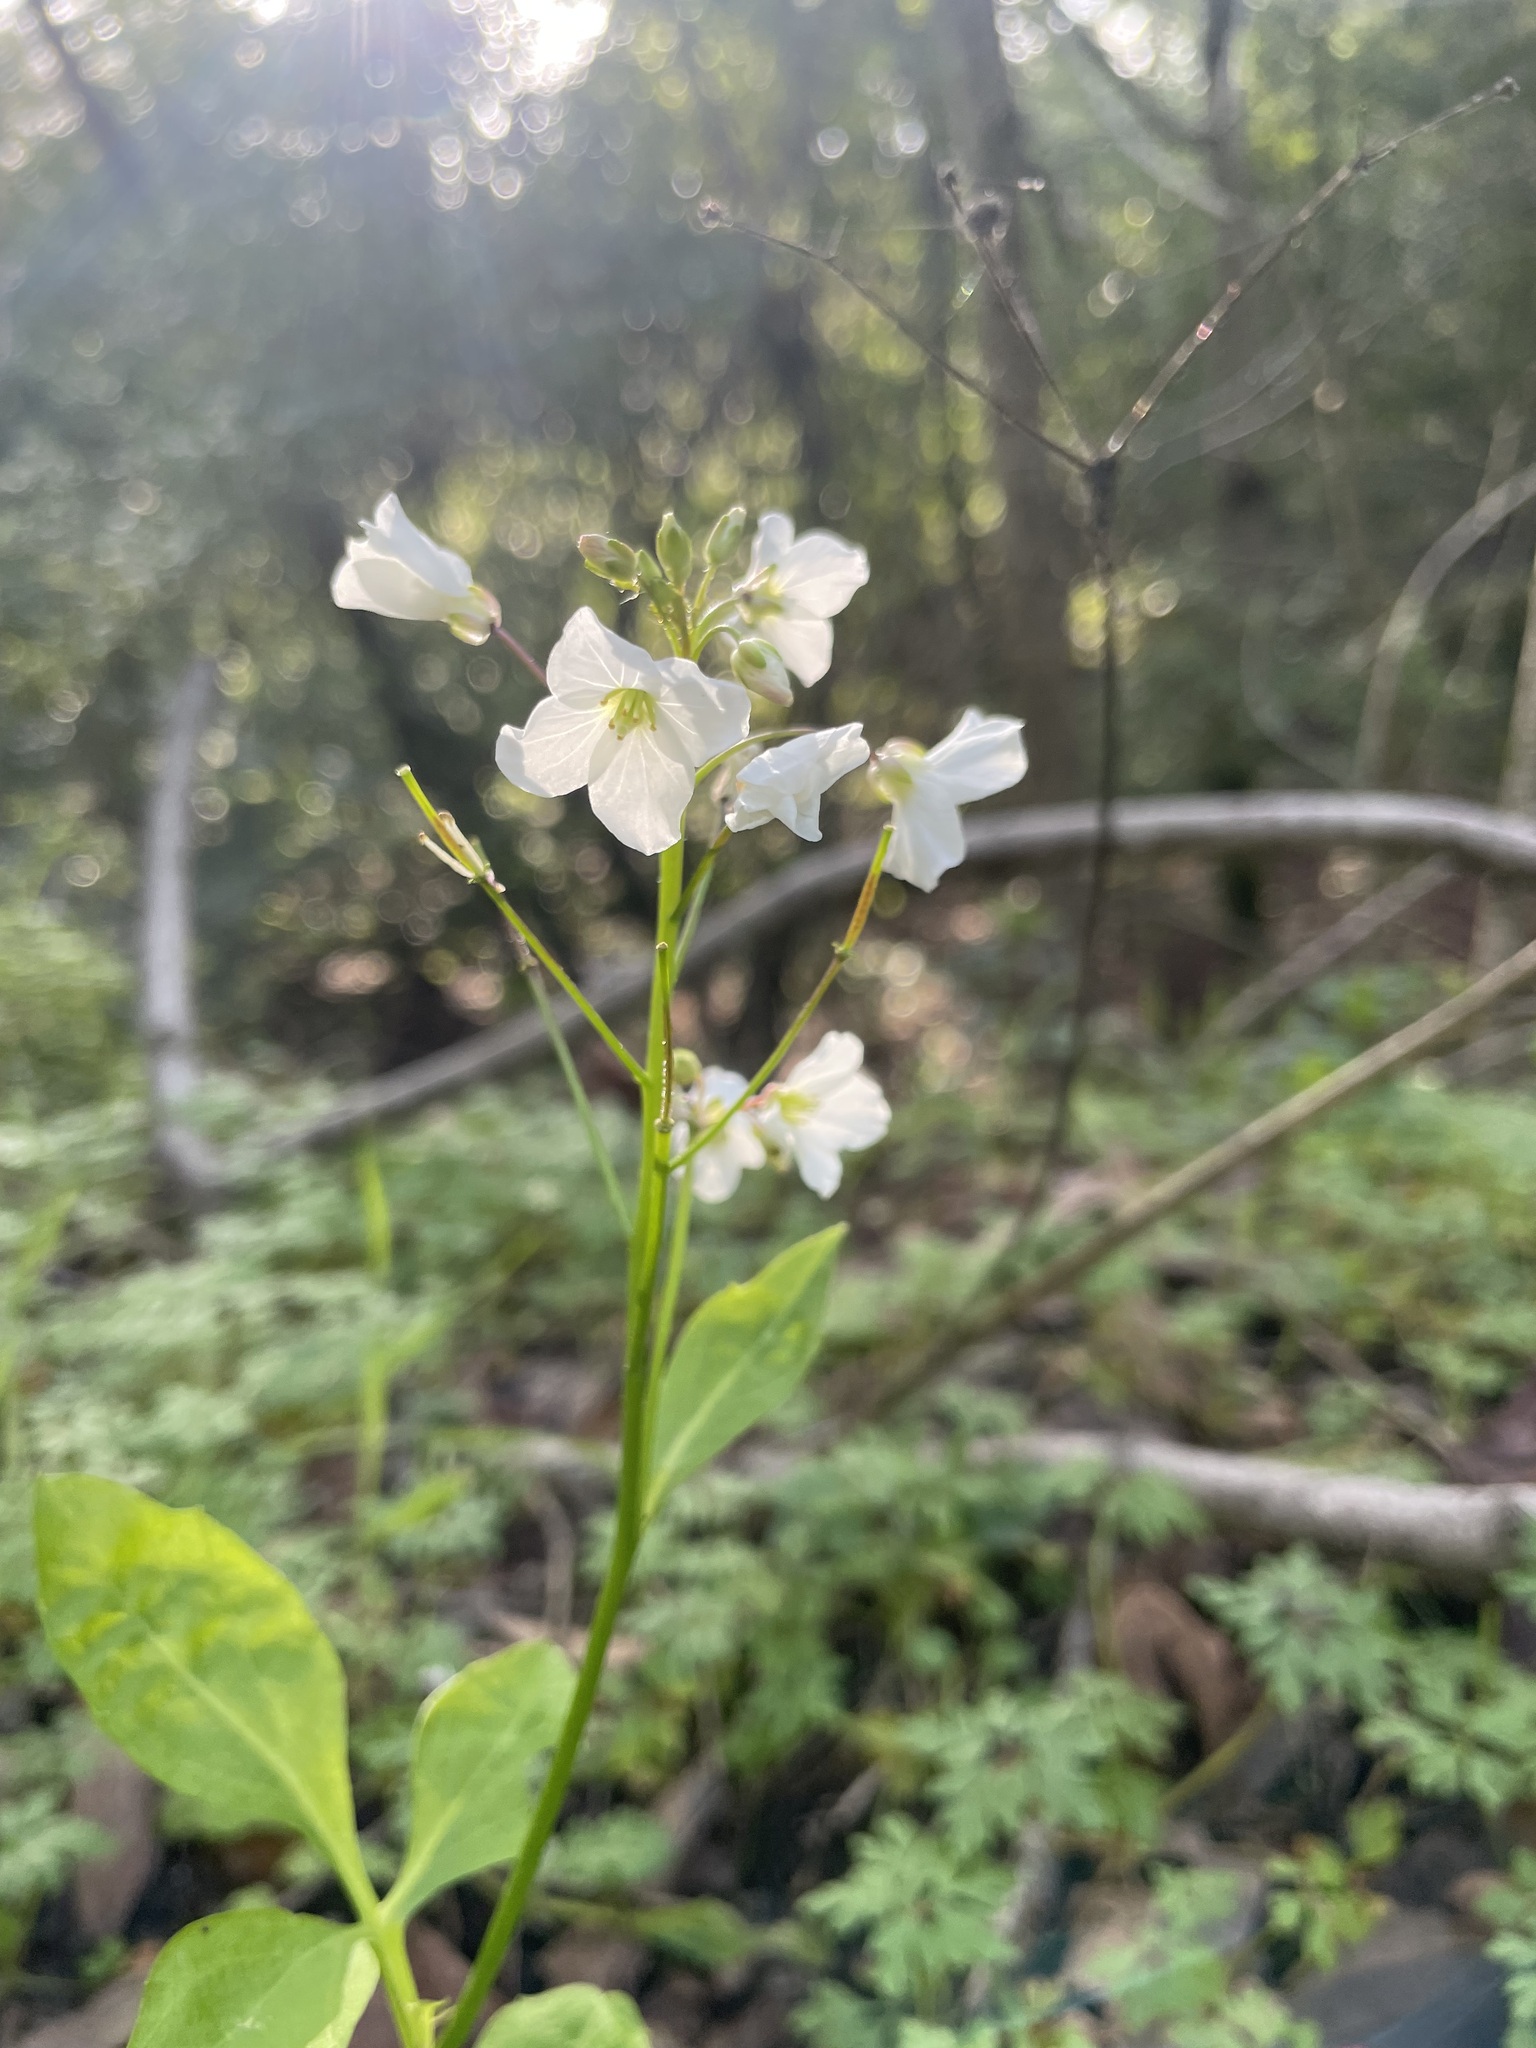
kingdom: Plantae
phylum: Tracheophyta
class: Magnoliopsida
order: Brassicales
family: Brassicaceae
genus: Cardamine
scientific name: Cardamine californica
